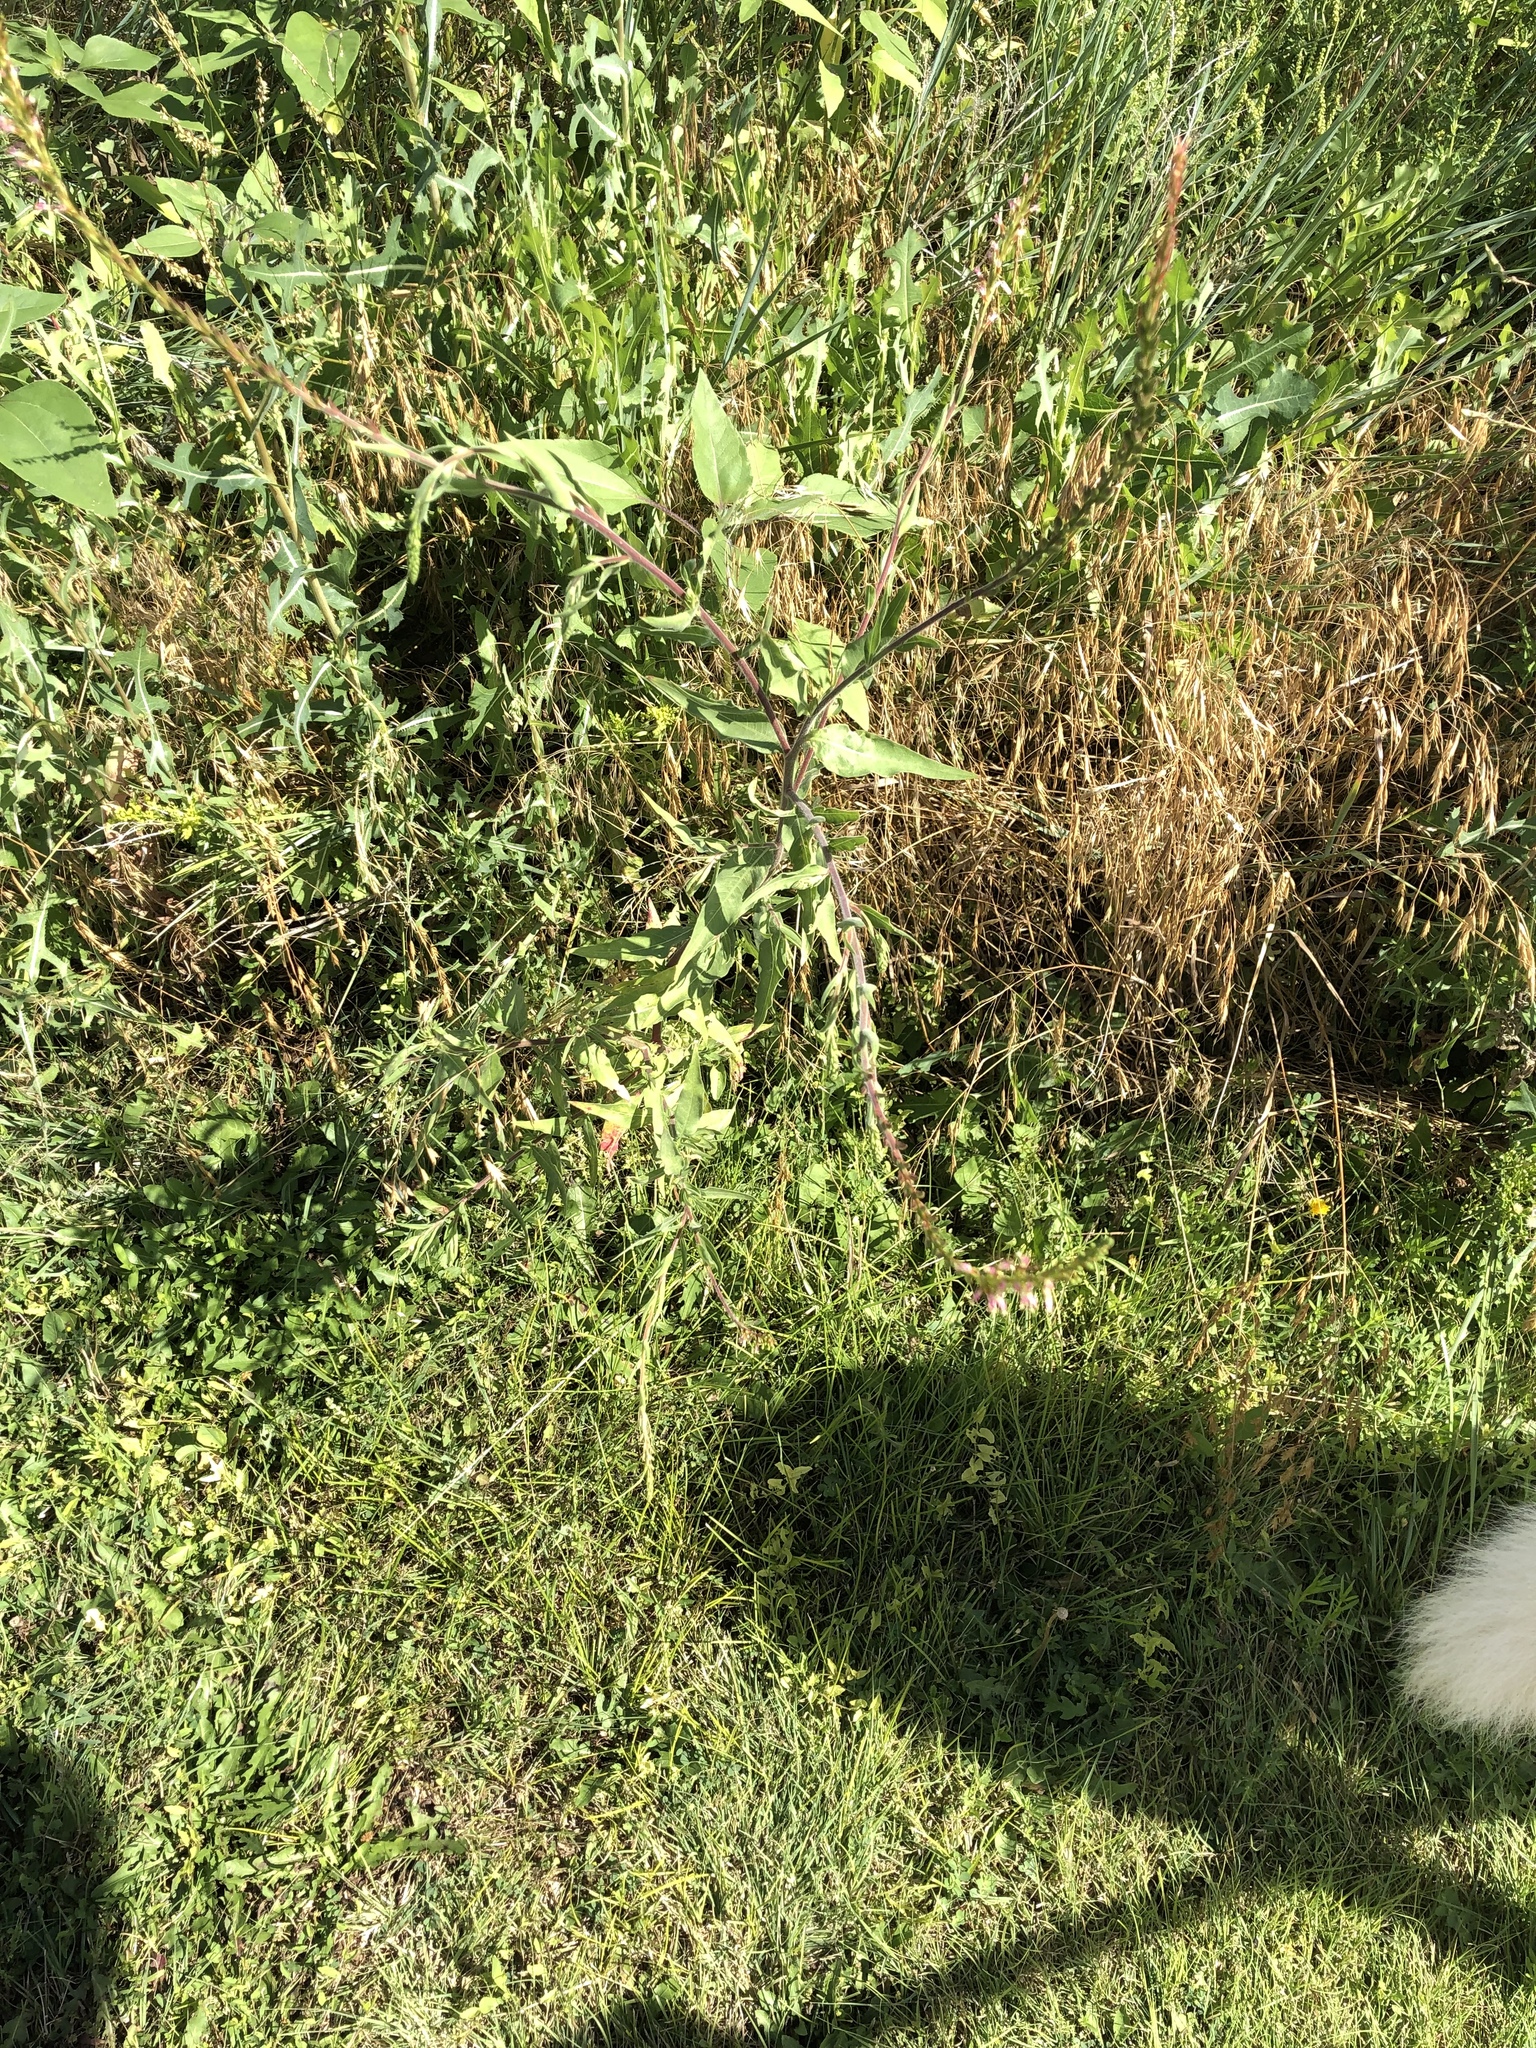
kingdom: Plantae
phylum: Tracheophyta
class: Magnoliopsida
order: Myrtales
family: Onagraceae
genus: Oenothera
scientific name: Oenothera curtiflora
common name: Velvetweed
